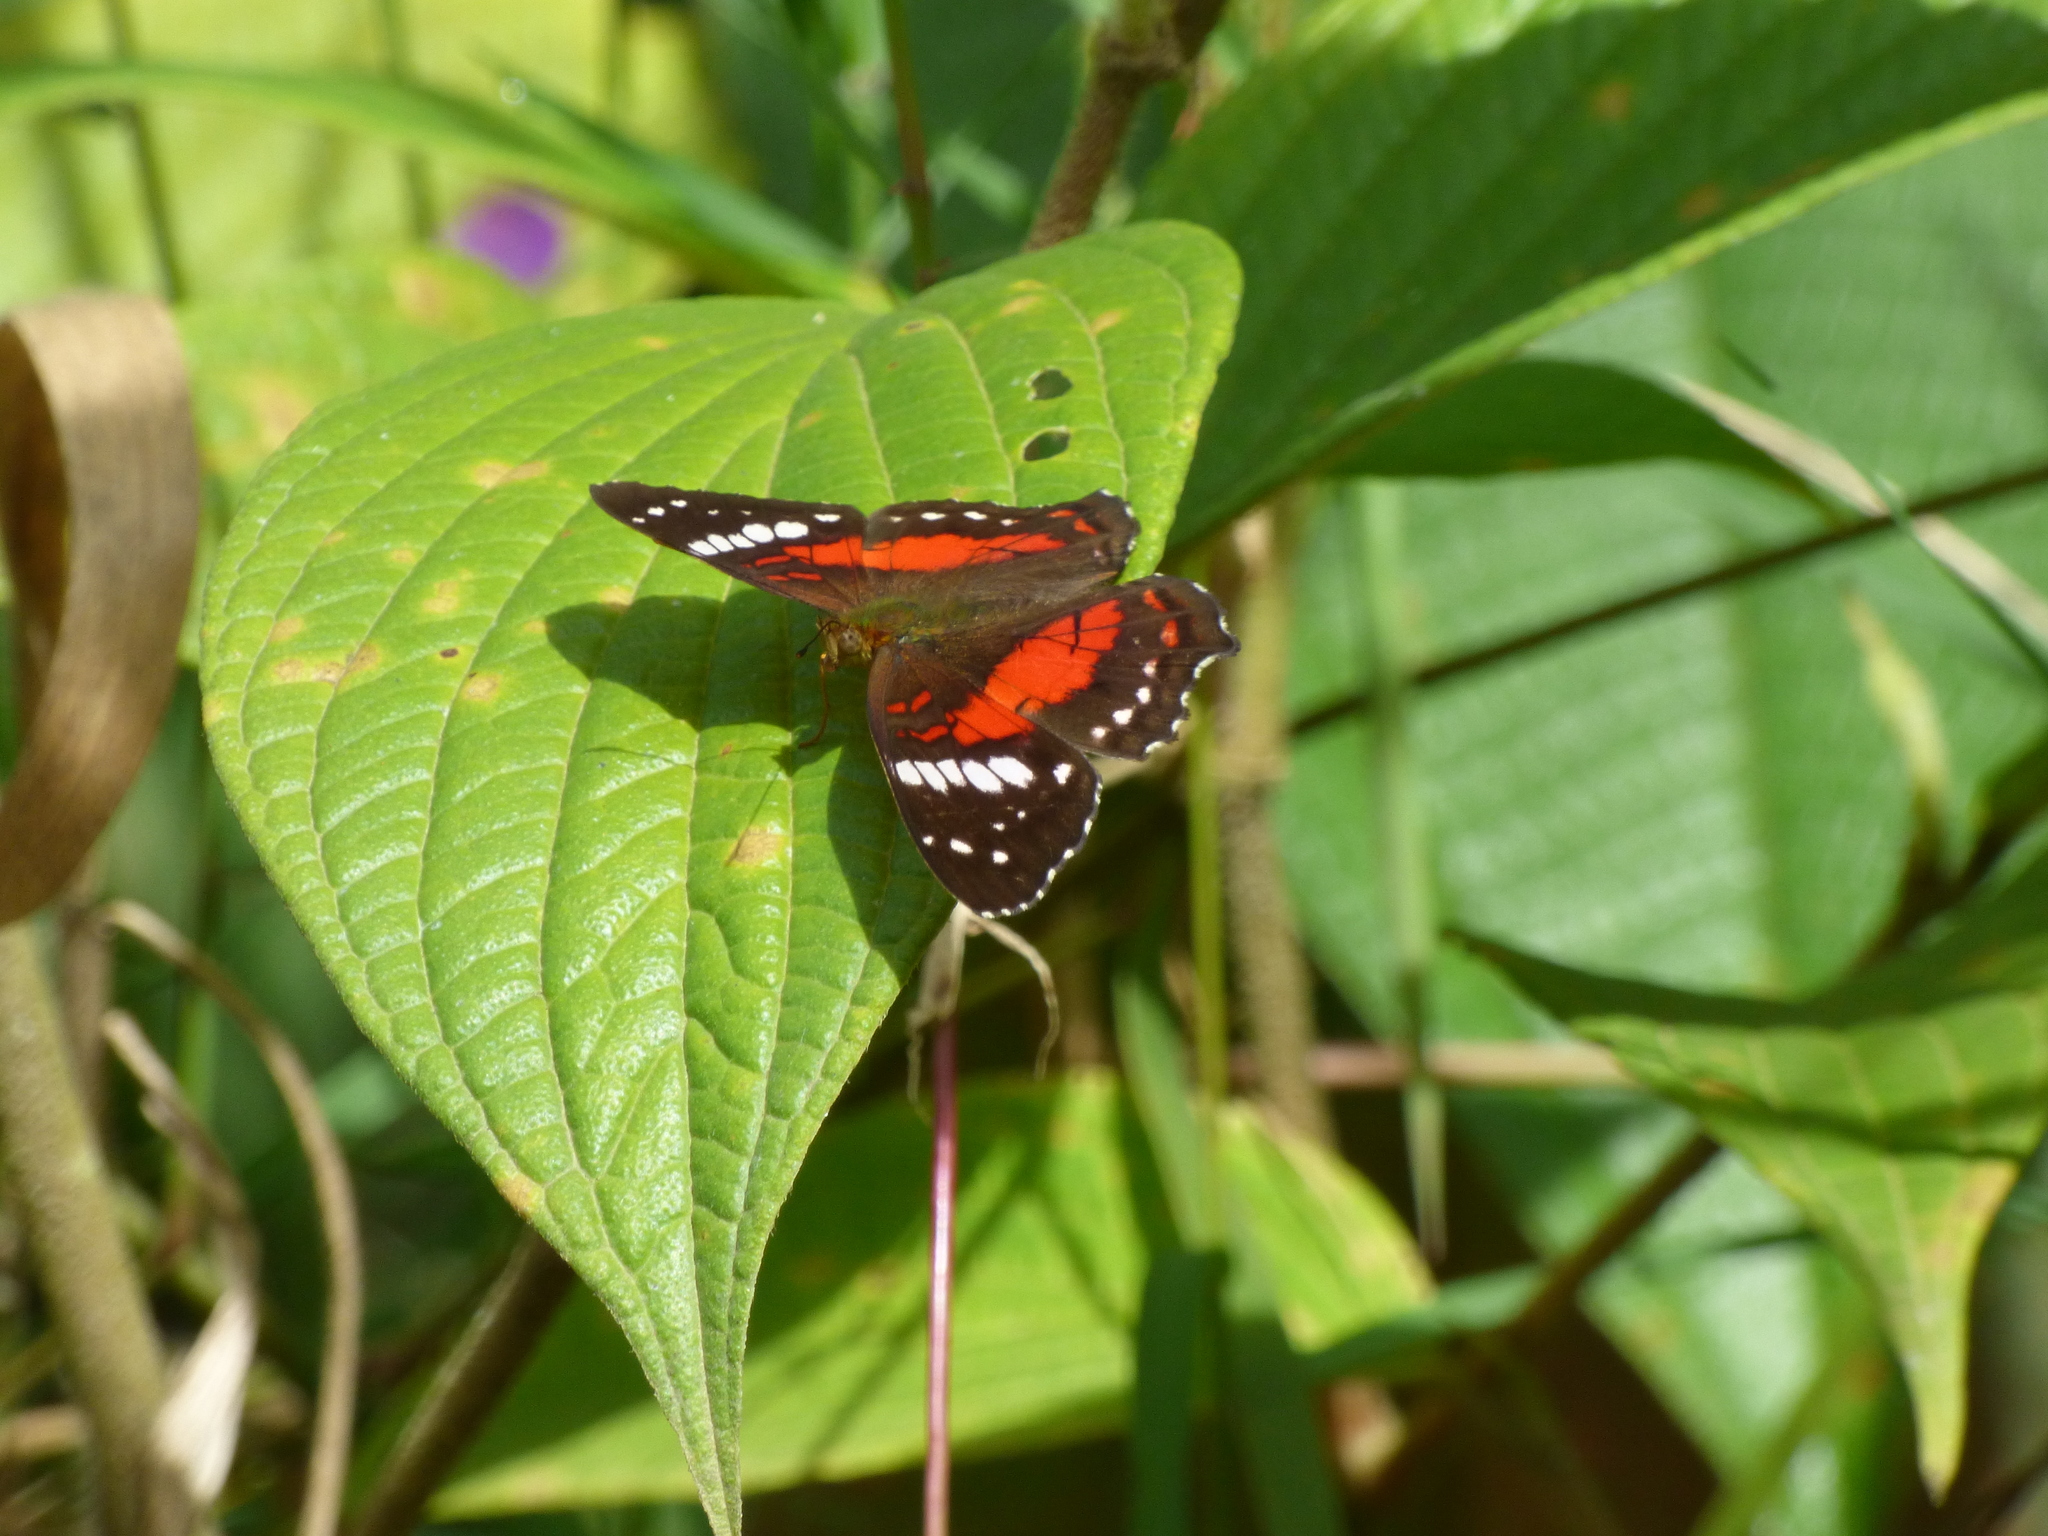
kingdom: Animalia
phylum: Arthropoda
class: Insecta
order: Lepidoptera
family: Nymphalidae
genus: Anartia
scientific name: Anartia amathea
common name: Red peacock
